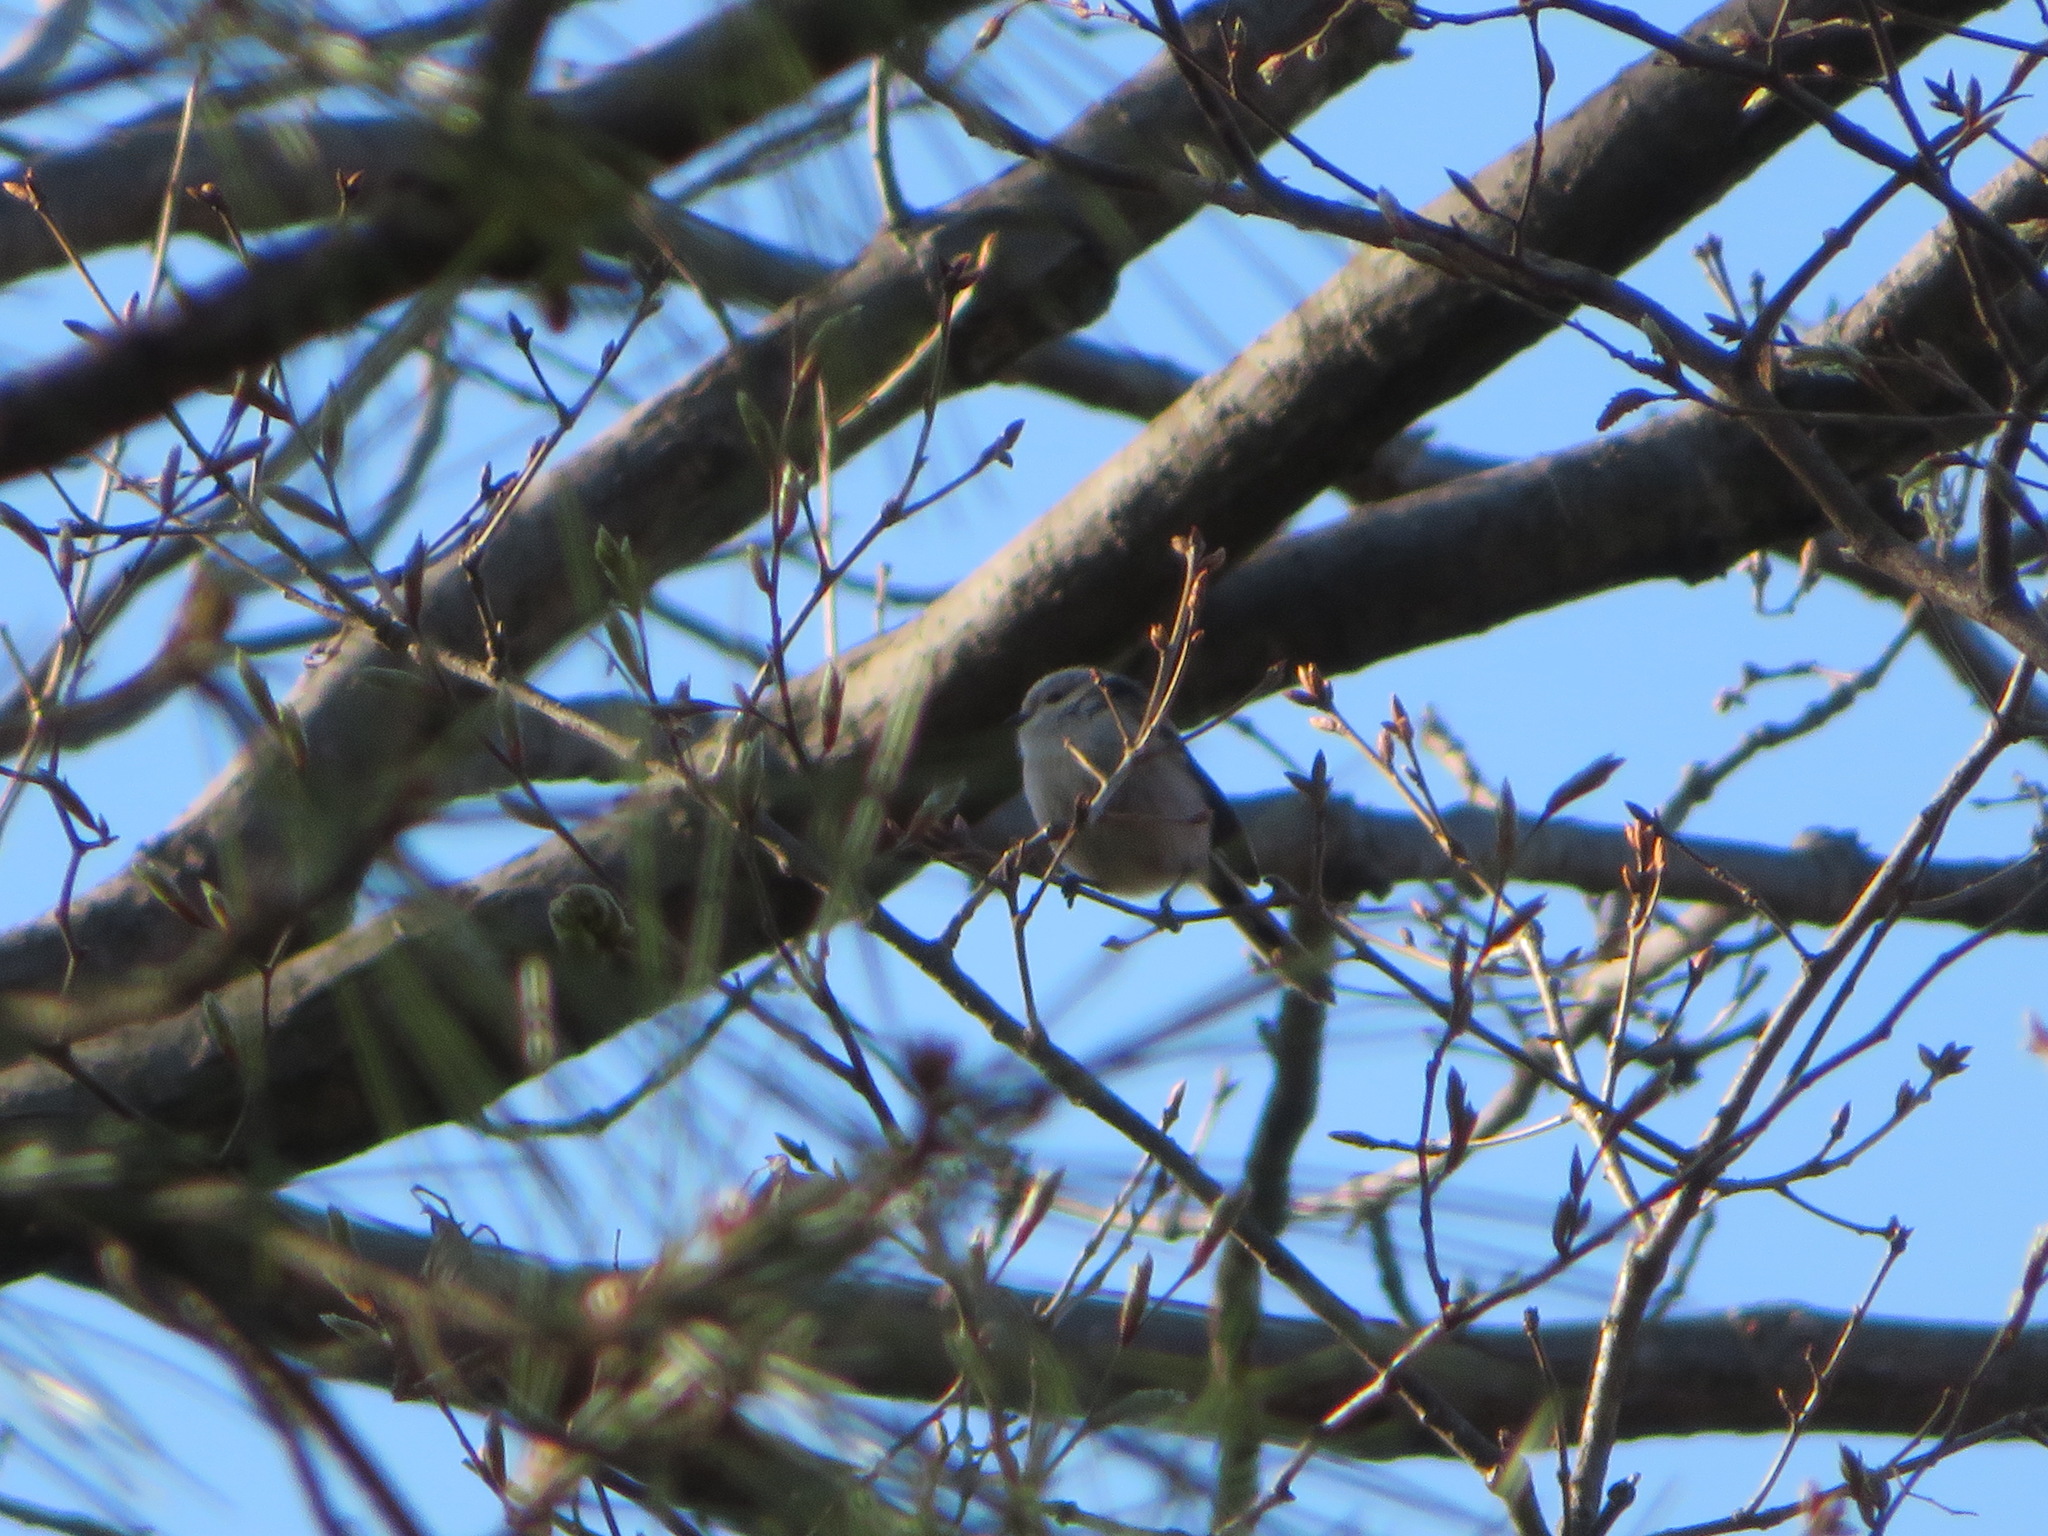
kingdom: Animalia
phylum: Chordata
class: Aves
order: Passeriformes
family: Aegithalidae
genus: Aegithalos
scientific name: Aegithalos caudatus
